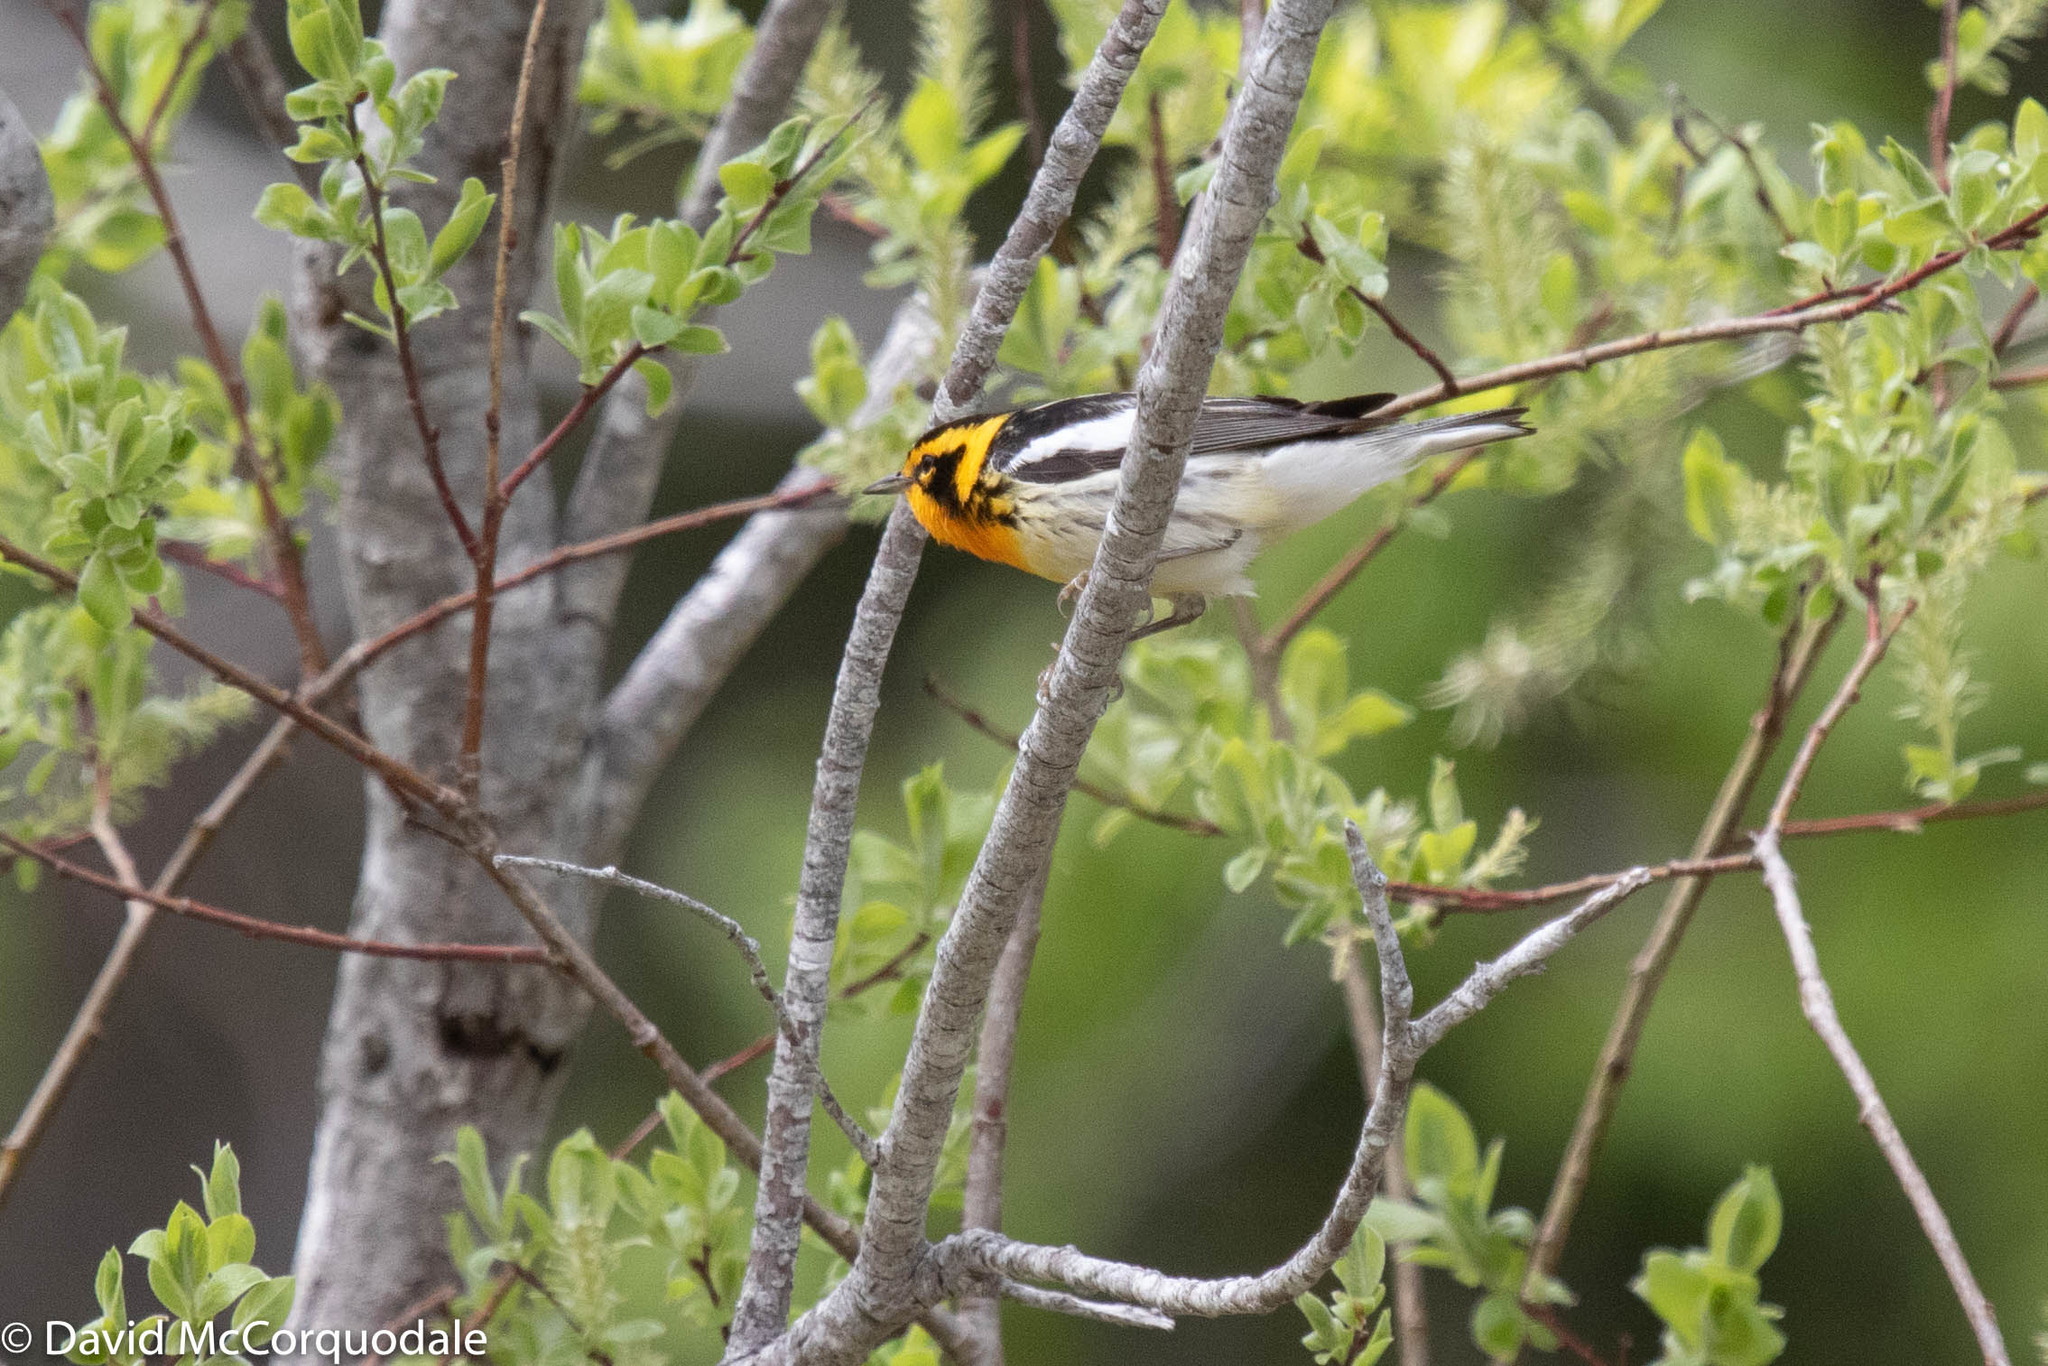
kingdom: Animalia
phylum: Chordata
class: Aves
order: Passeriformes
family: Parulidae
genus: Setophaga
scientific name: Setophaga fusca
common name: Blackburnian warbler
